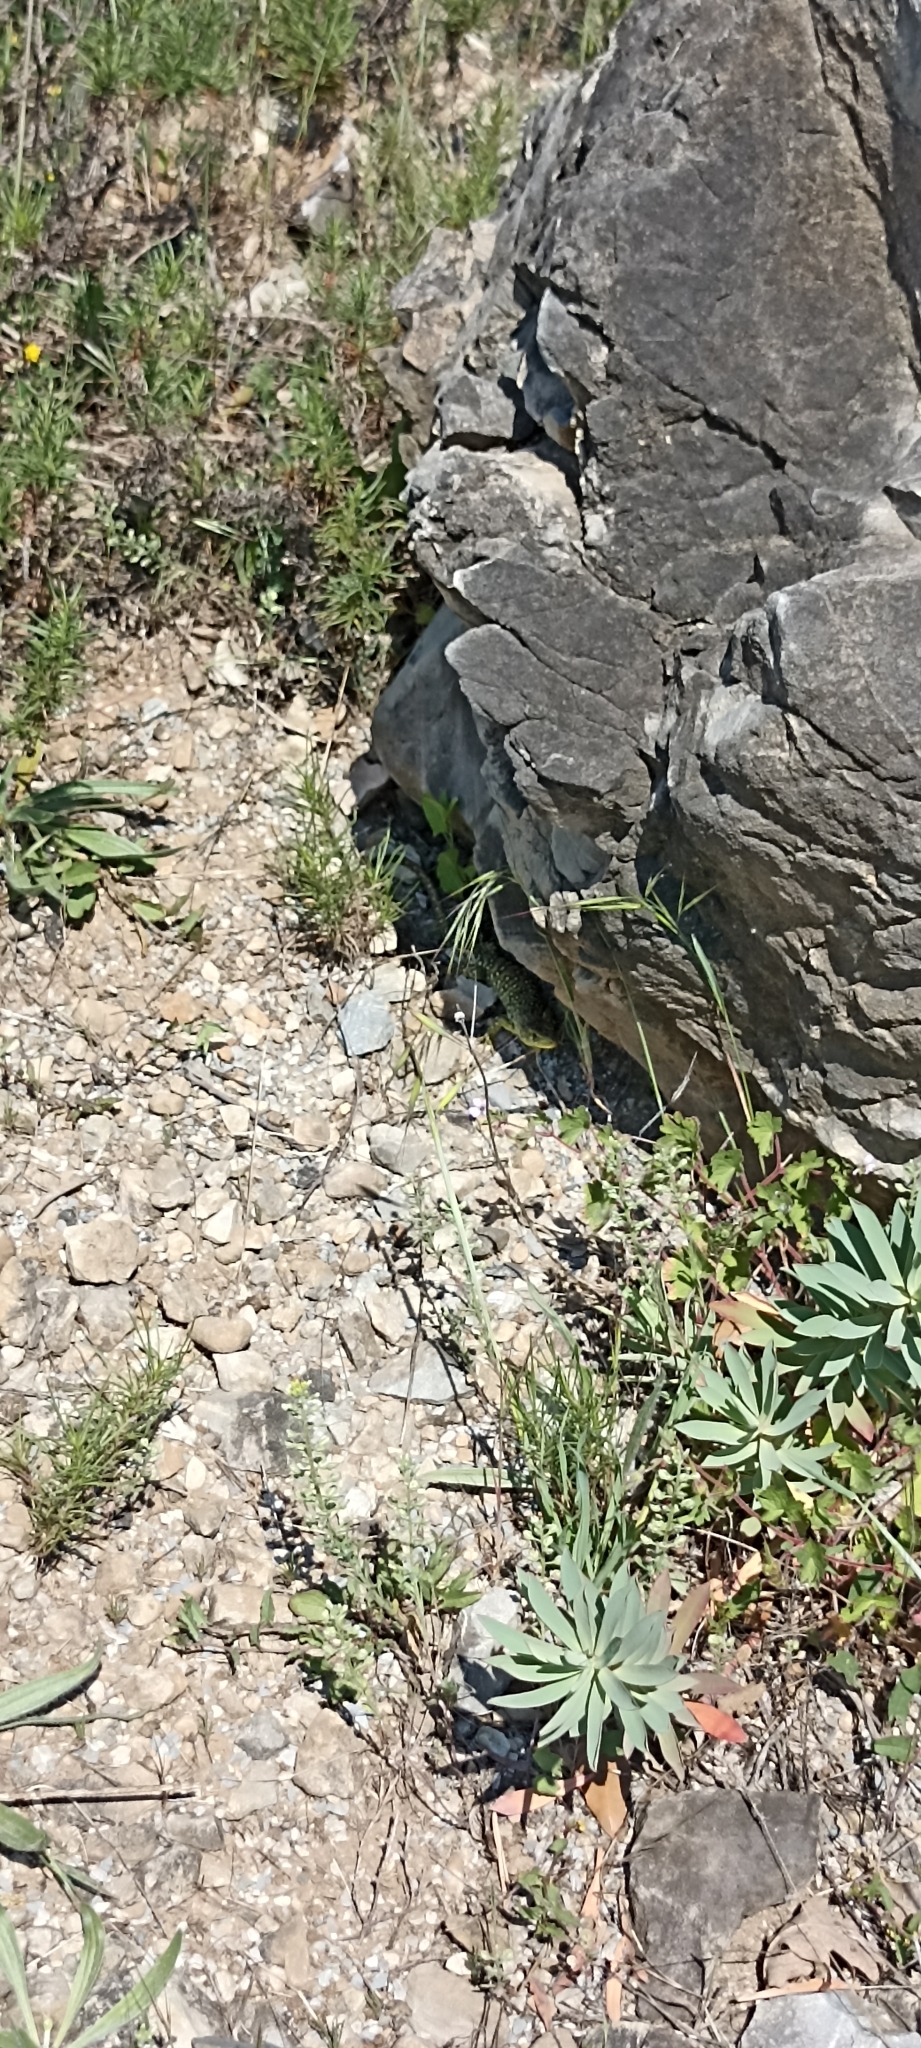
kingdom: Animalia
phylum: Chordata
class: Squamata
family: Lacertidae
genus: Timon
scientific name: Timon lepidus
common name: Ocellated lizard
